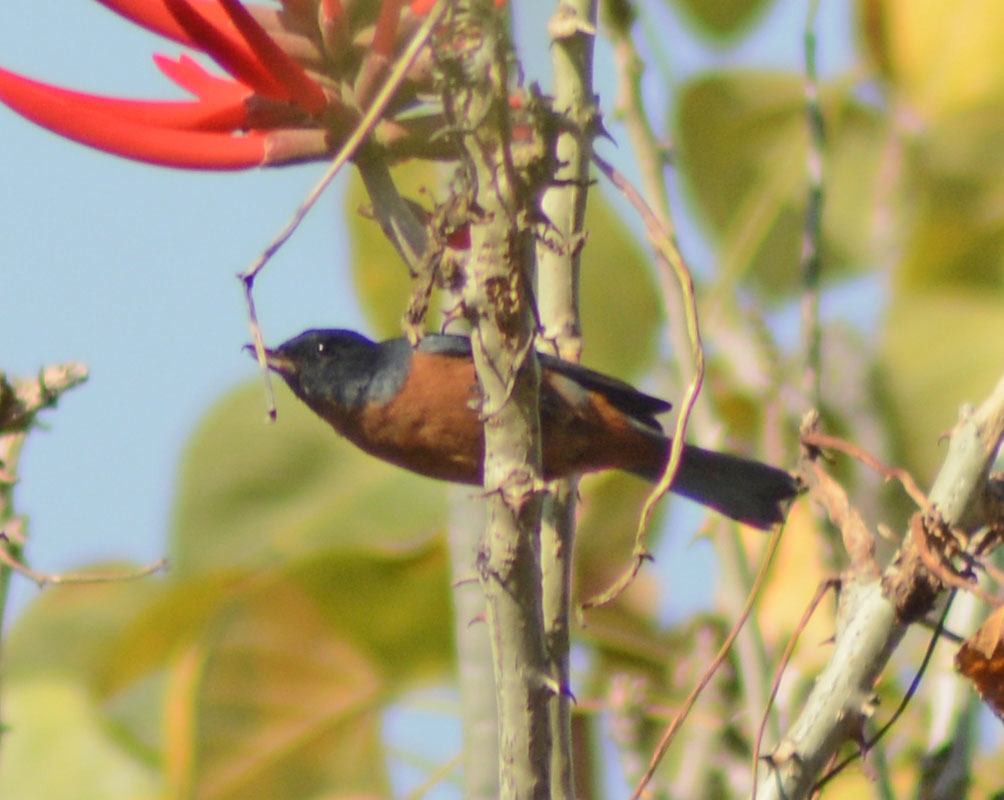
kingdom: Animalia
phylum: Chordata
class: Aves
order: Passeriformes
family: Thraupidae
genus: Diglossa
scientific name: Diglossa baritula
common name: Cinnamon-bellied flowerpiercer
